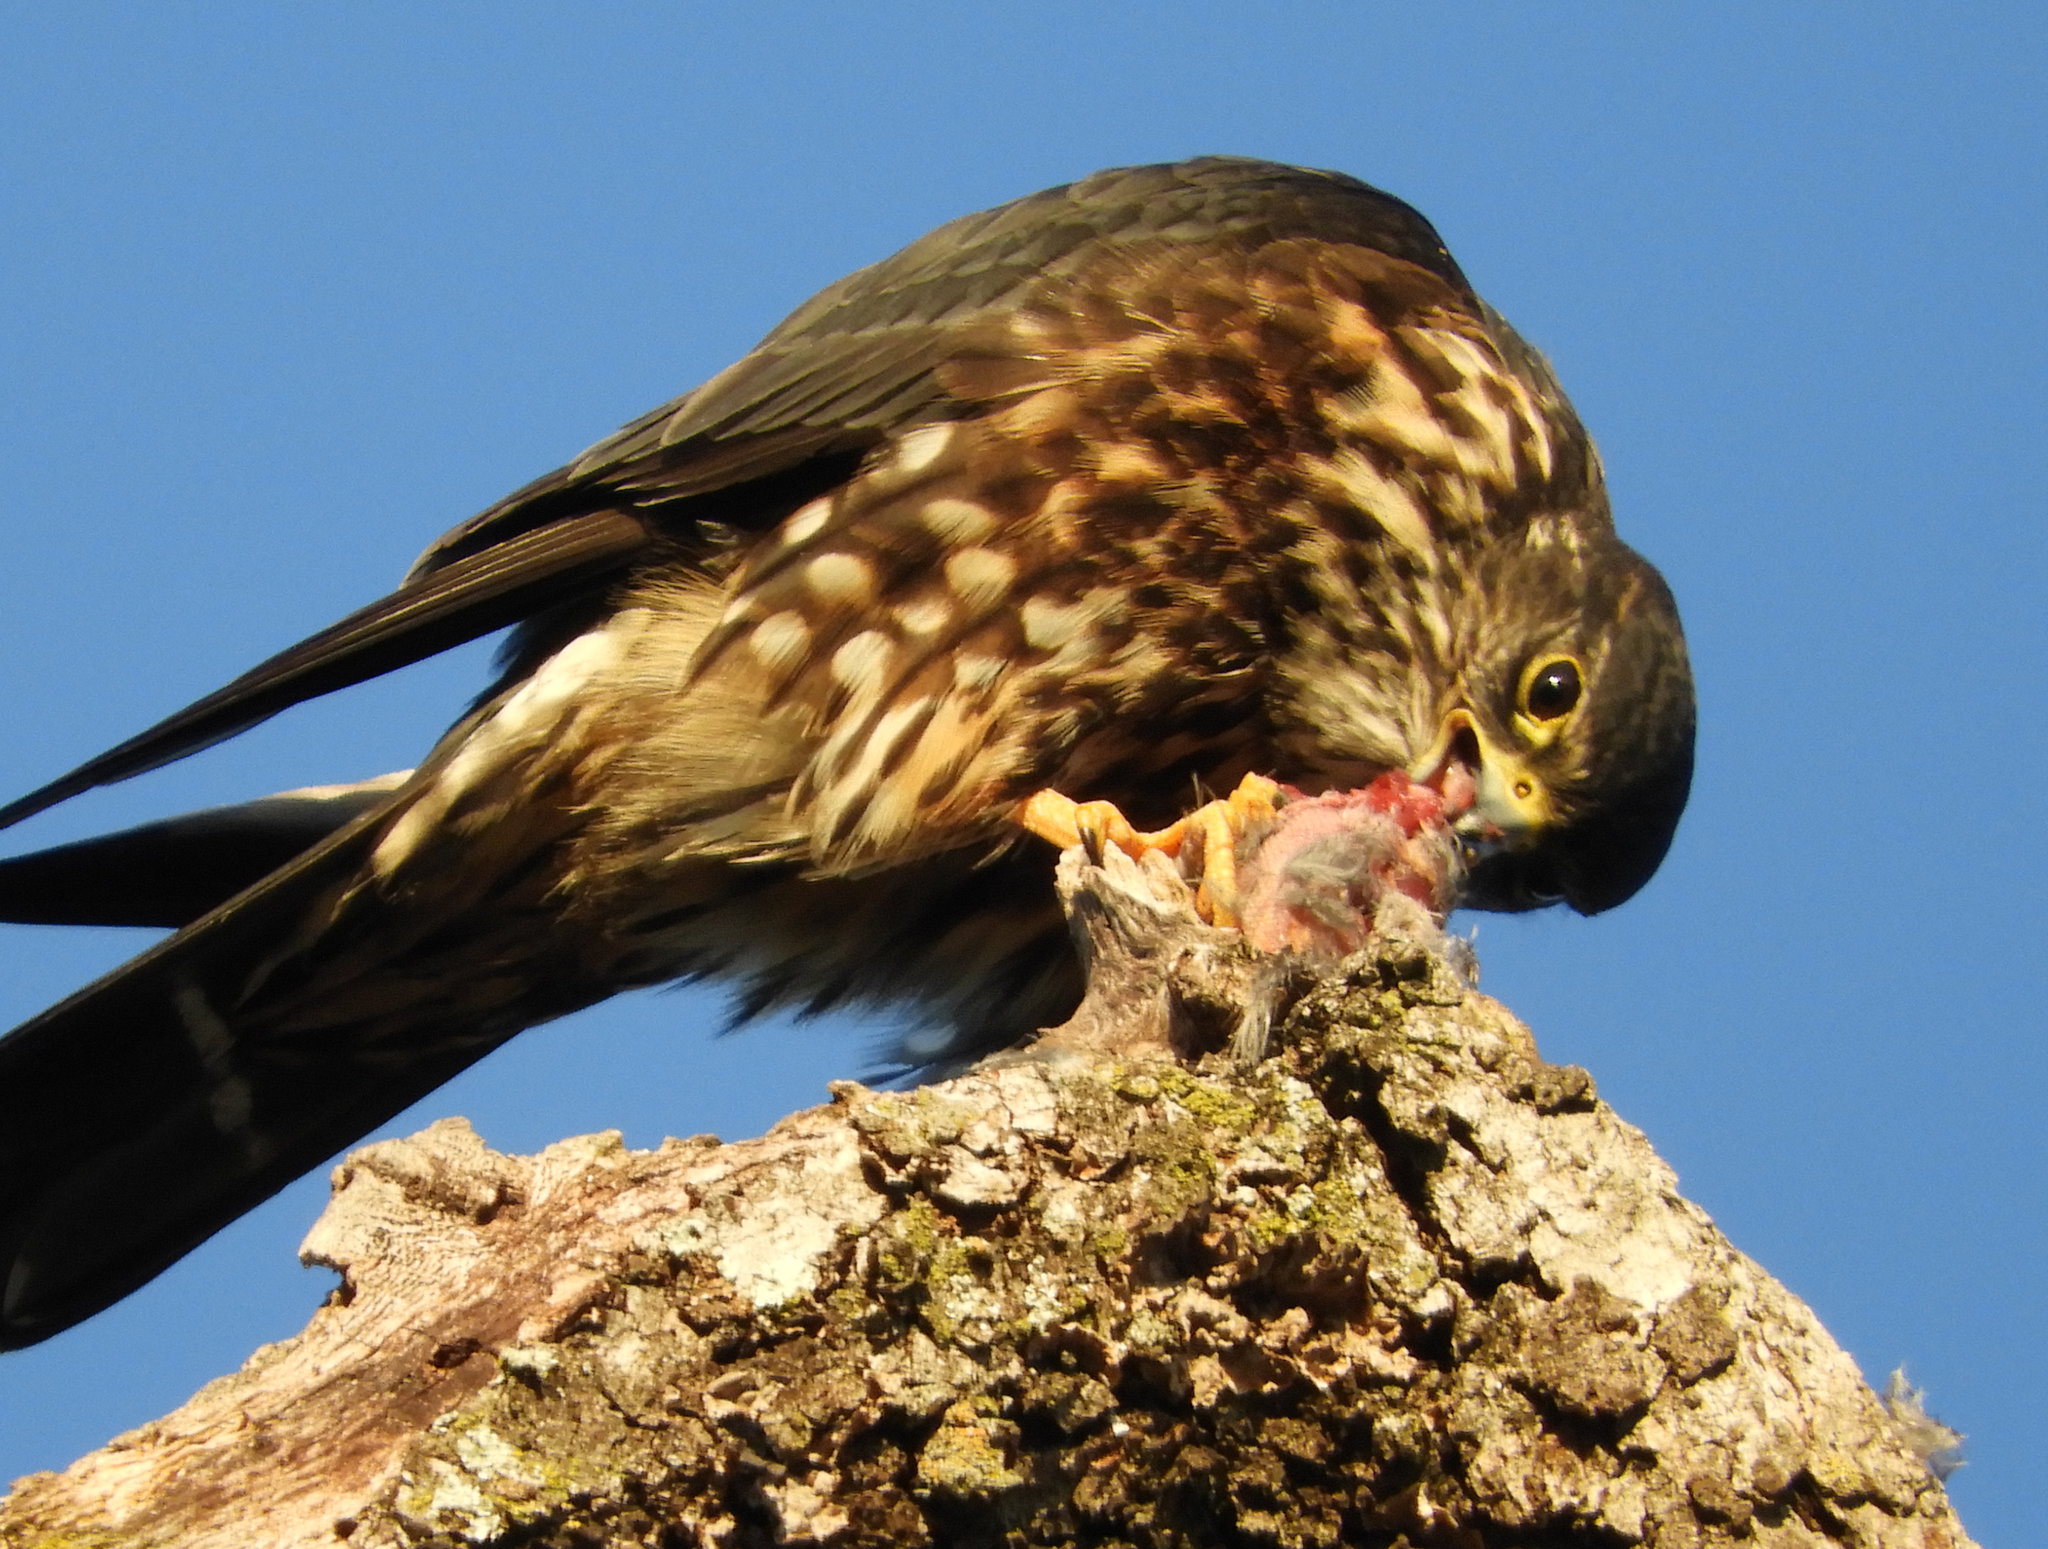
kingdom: Animalia
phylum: Chordata
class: Aves
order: Falconiformes
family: Falconidae
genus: Falco
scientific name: Falco columbarius
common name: Merlin
